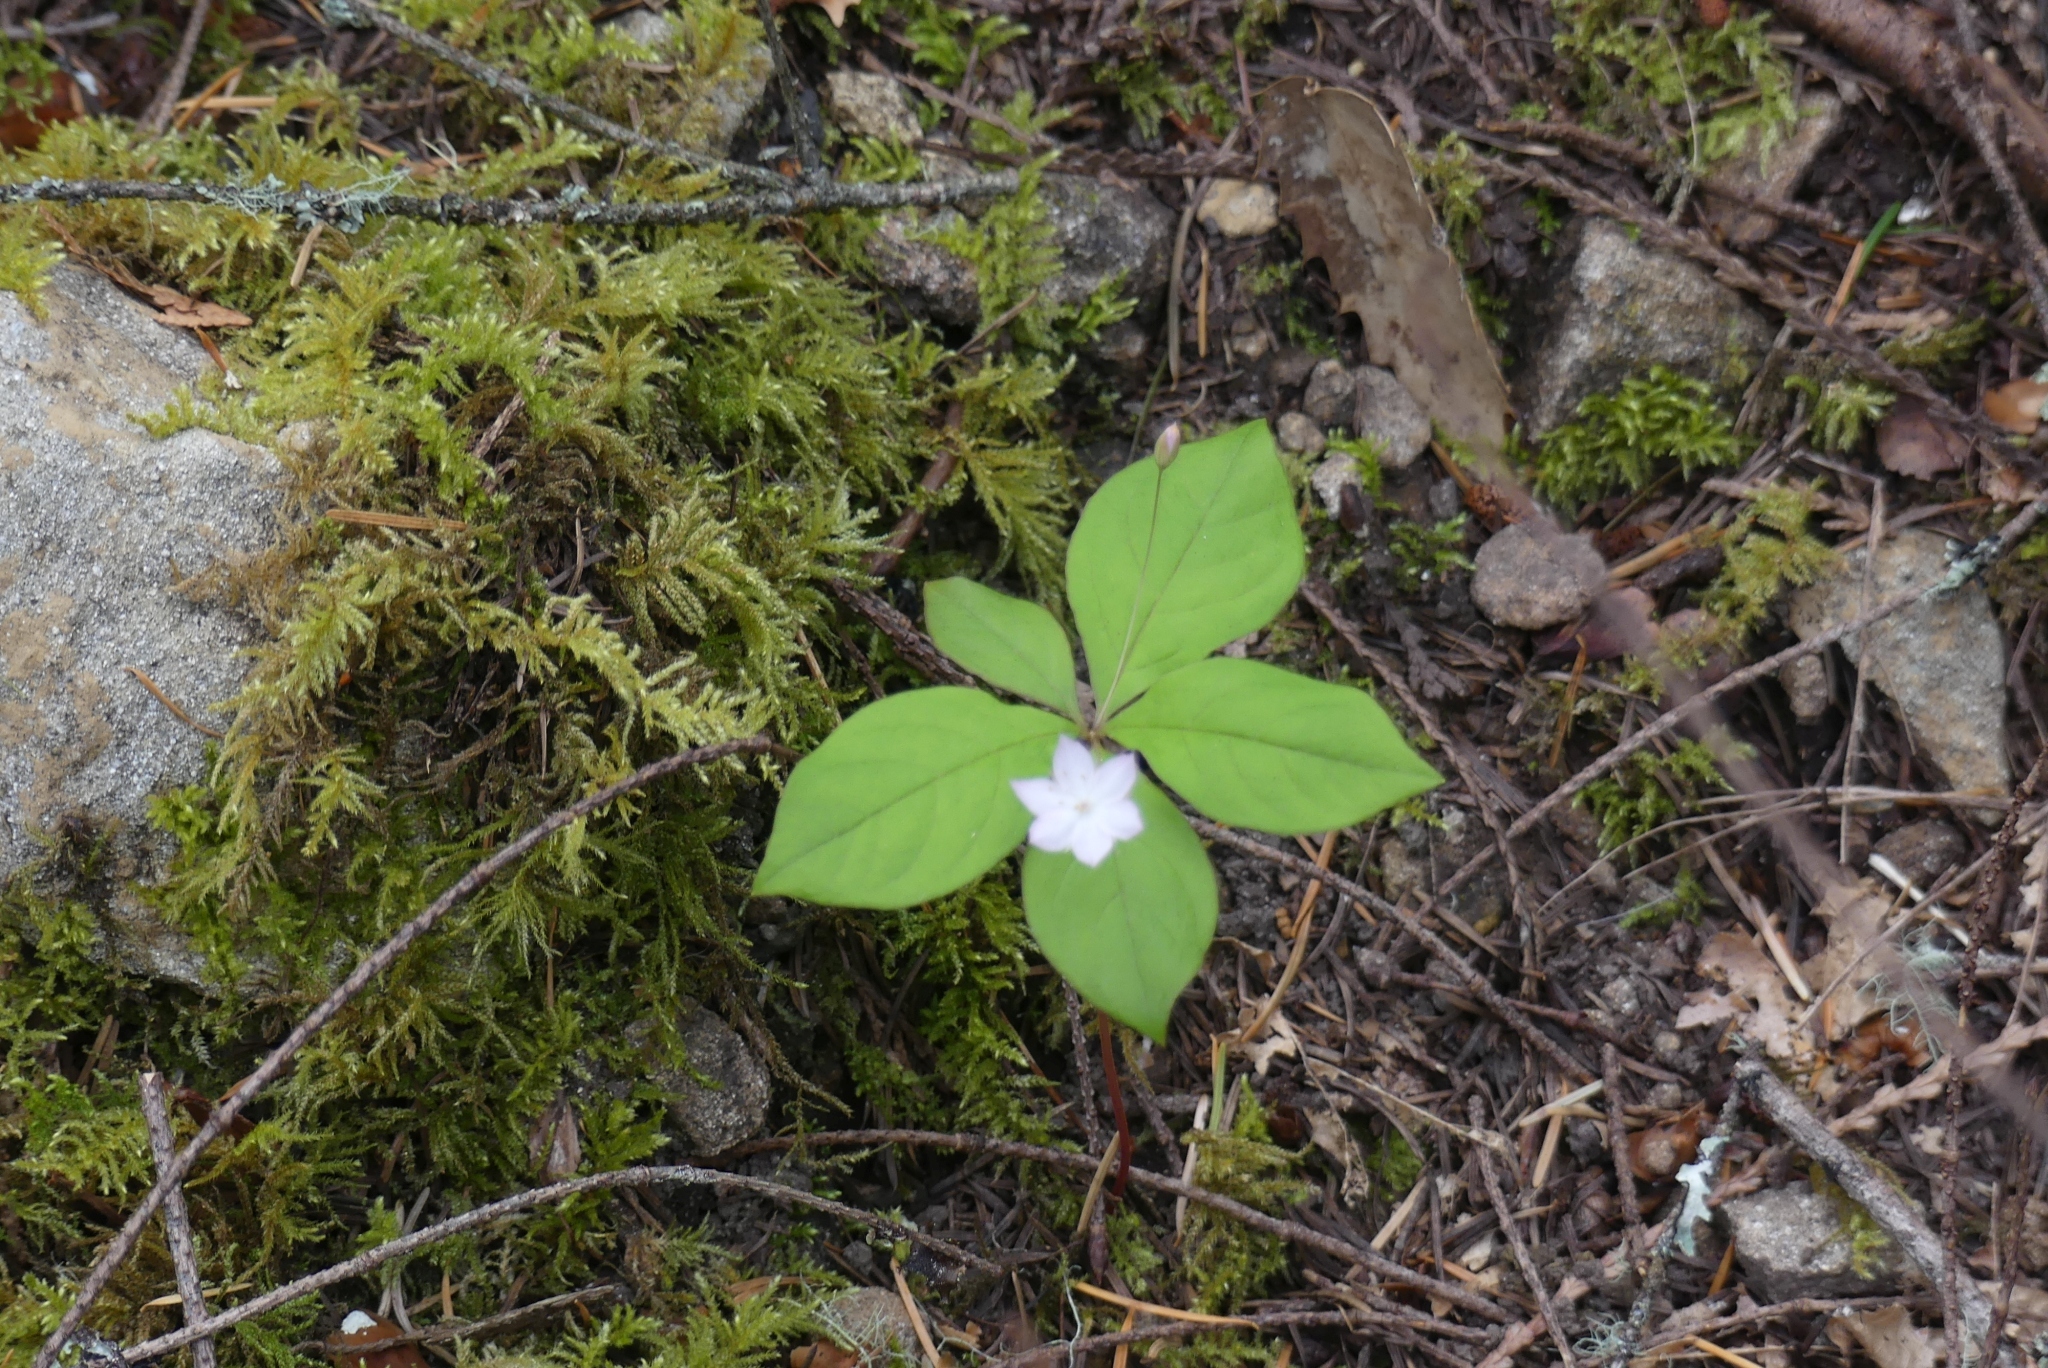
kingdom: Plantae
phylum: Tracheophyta
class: Magnoliopsida
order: Ericales
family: Primulaceae
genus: Lysimachia
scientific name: Lysimachia latifolia
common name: Pacific starflower
